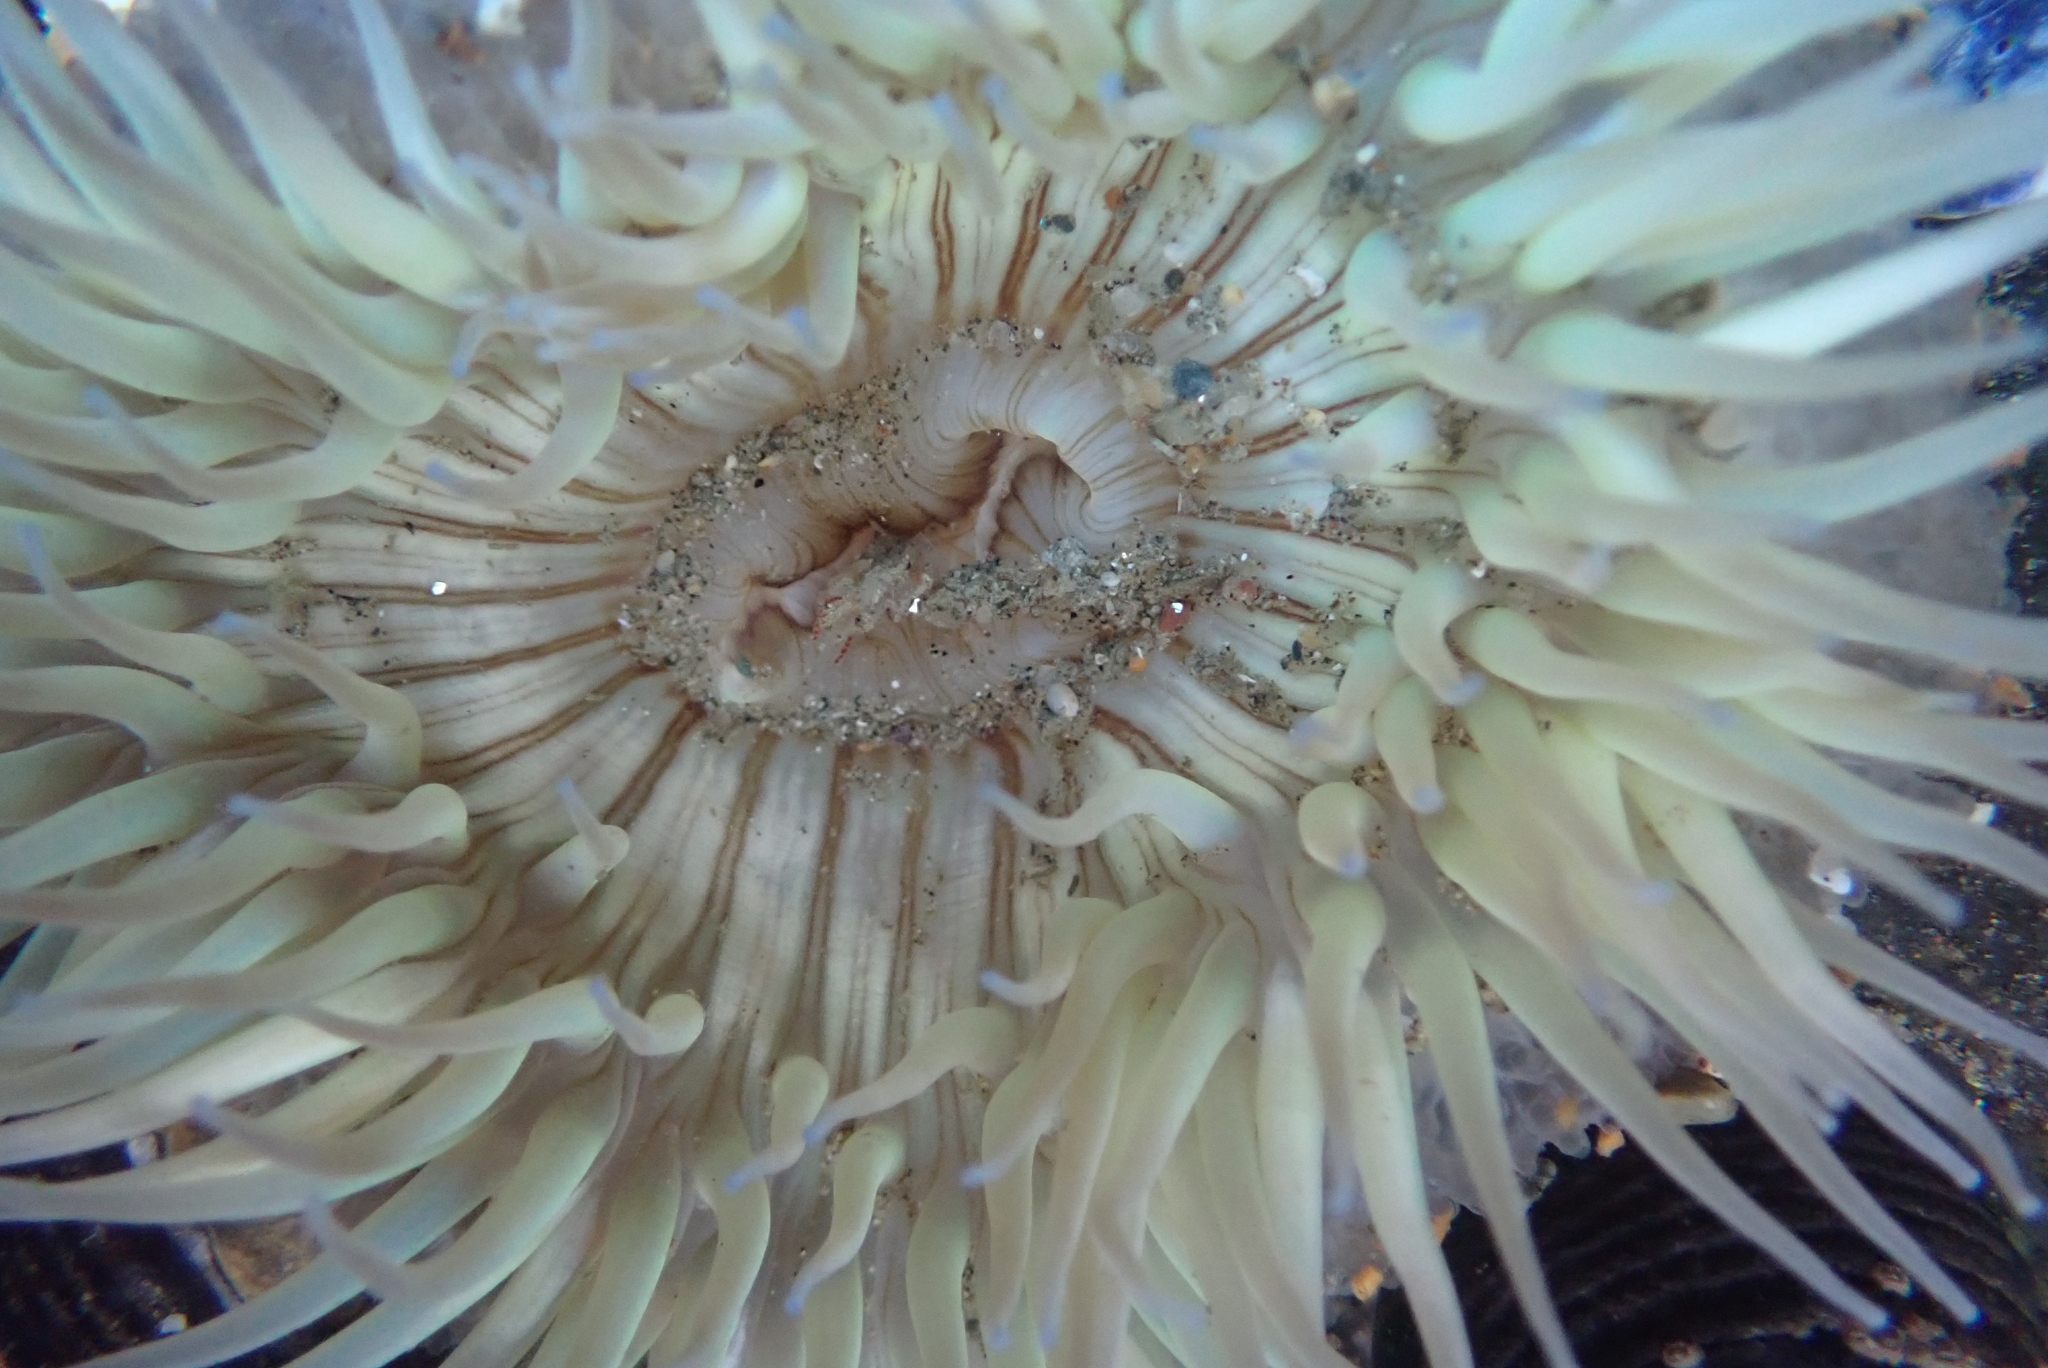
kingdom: Animalia
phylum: Cnidaria
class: Anthozoa
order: Actiniaria
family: Actiniidae
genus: Anthopleura
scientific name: Anthopleura sola
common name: Sun anemone
